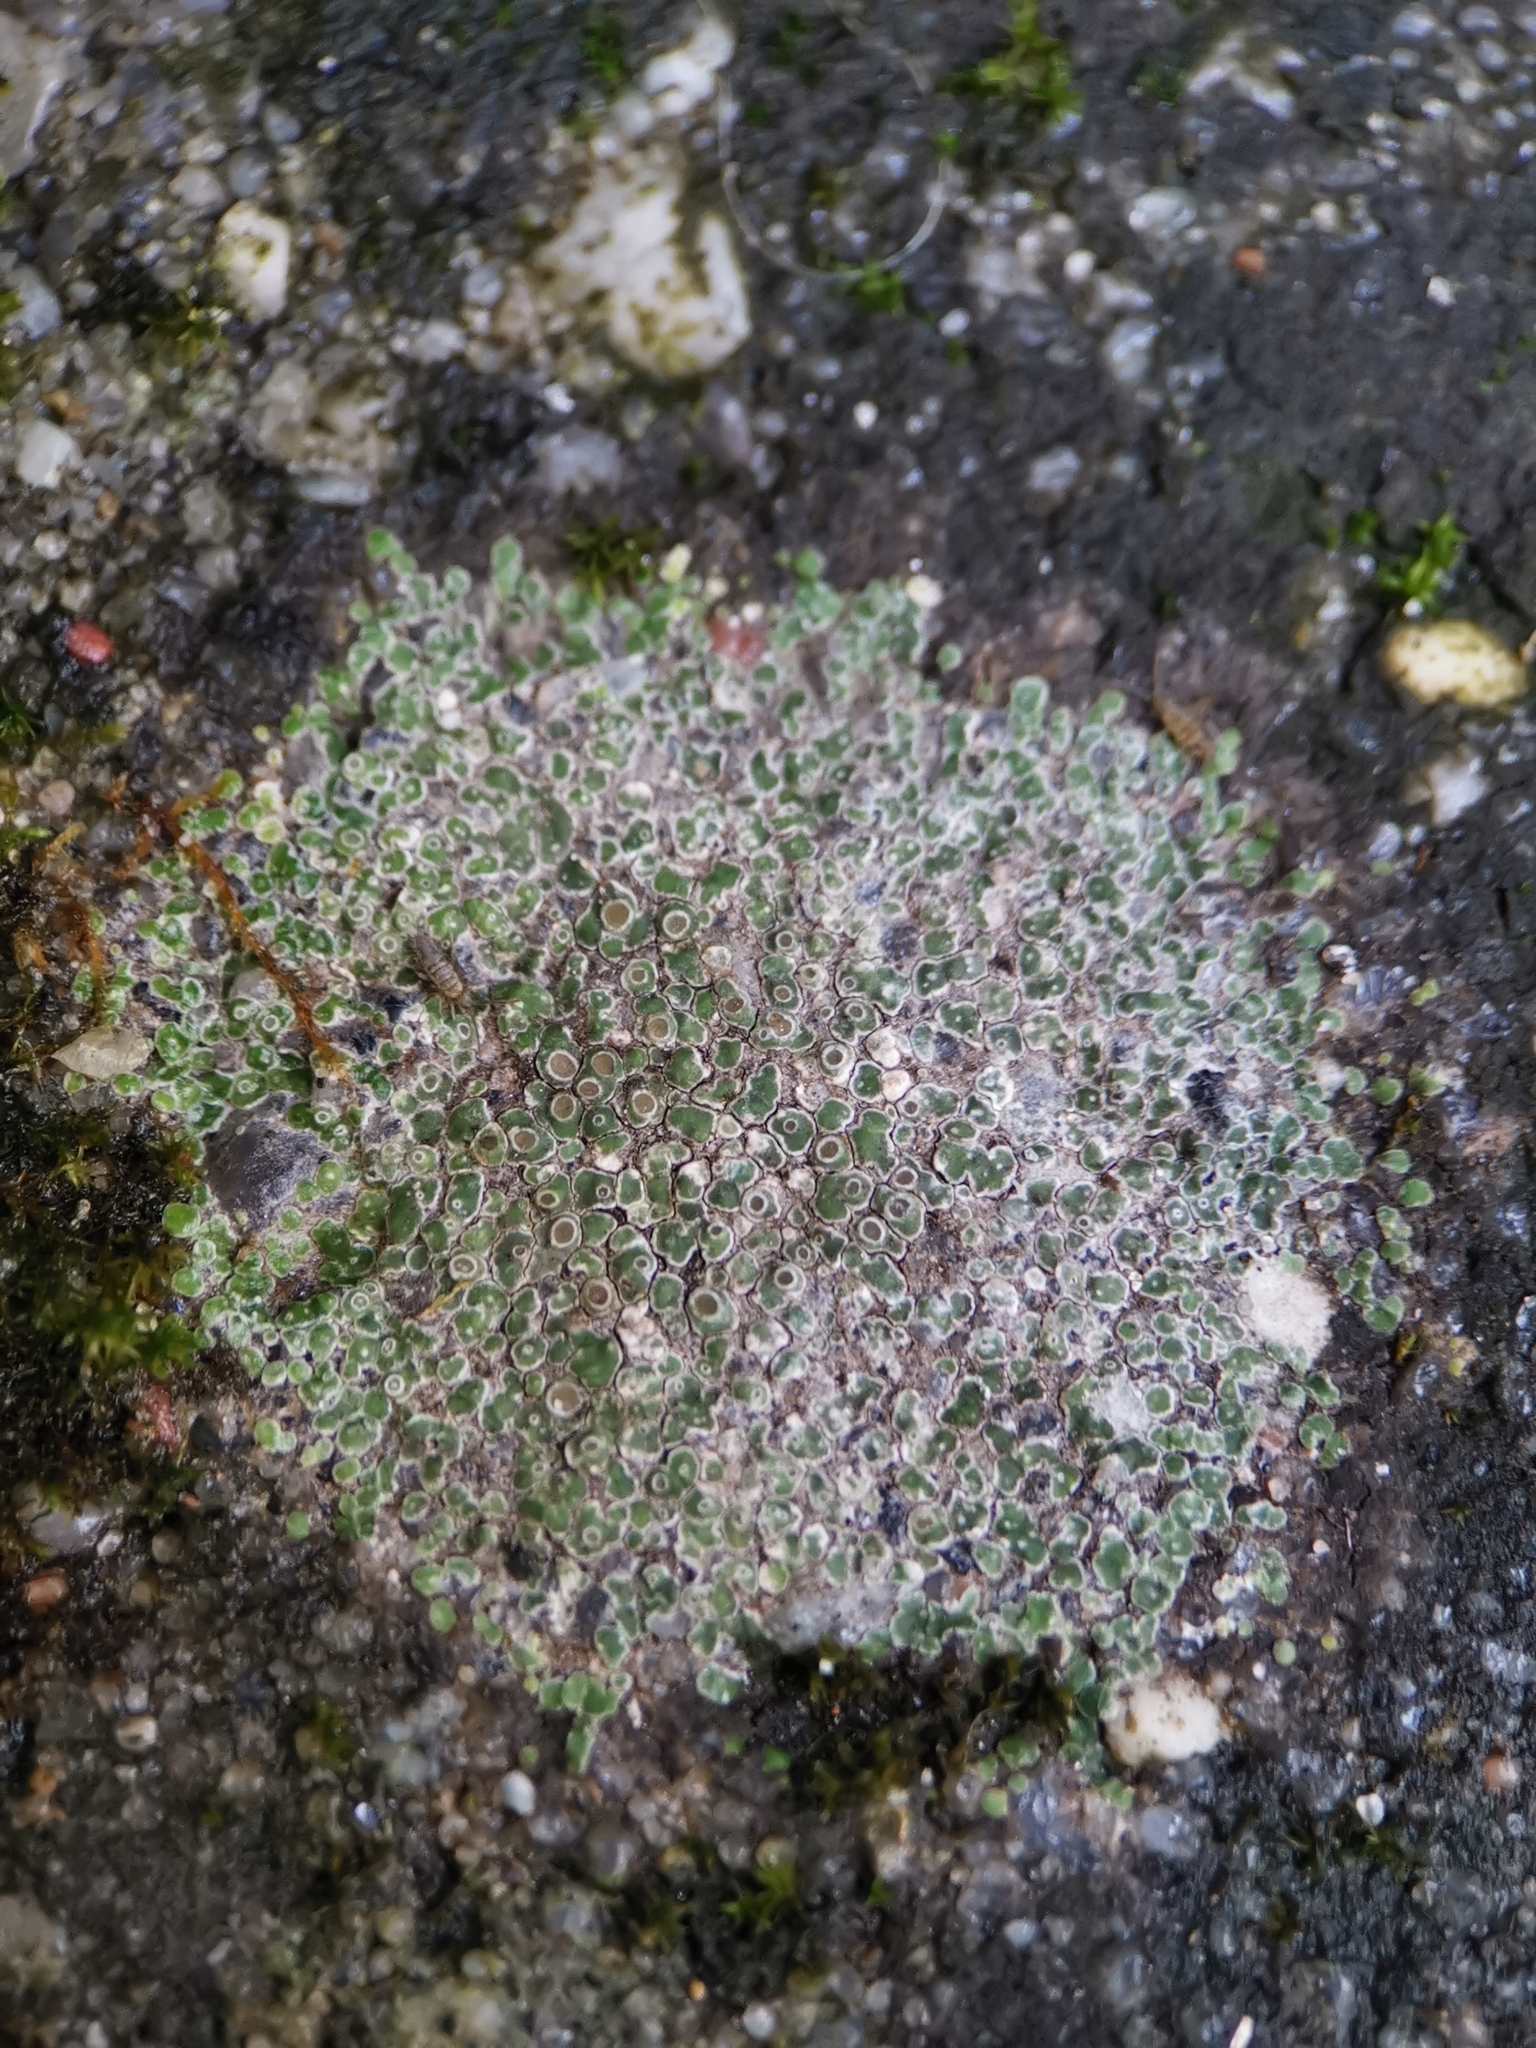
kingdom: Fungi
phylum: Ascomycota
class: Lecanoromycetes
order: Pertusariales
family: Megasporaceae
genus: Circinaria
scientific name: Circinaria contorta
